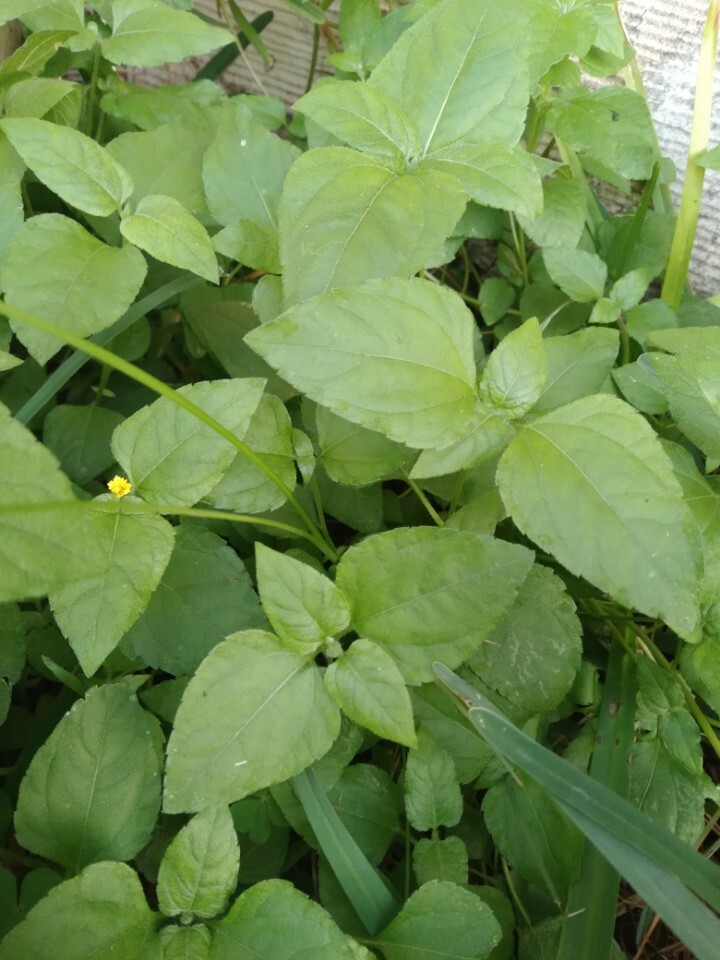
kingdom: Plantae
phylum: Tracheophyta
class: Magnoliopsida
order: Asterales
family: Asteraceae
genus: Calyptocarpus
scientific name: Calyptocarpus vialis
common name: Straggler daisy
